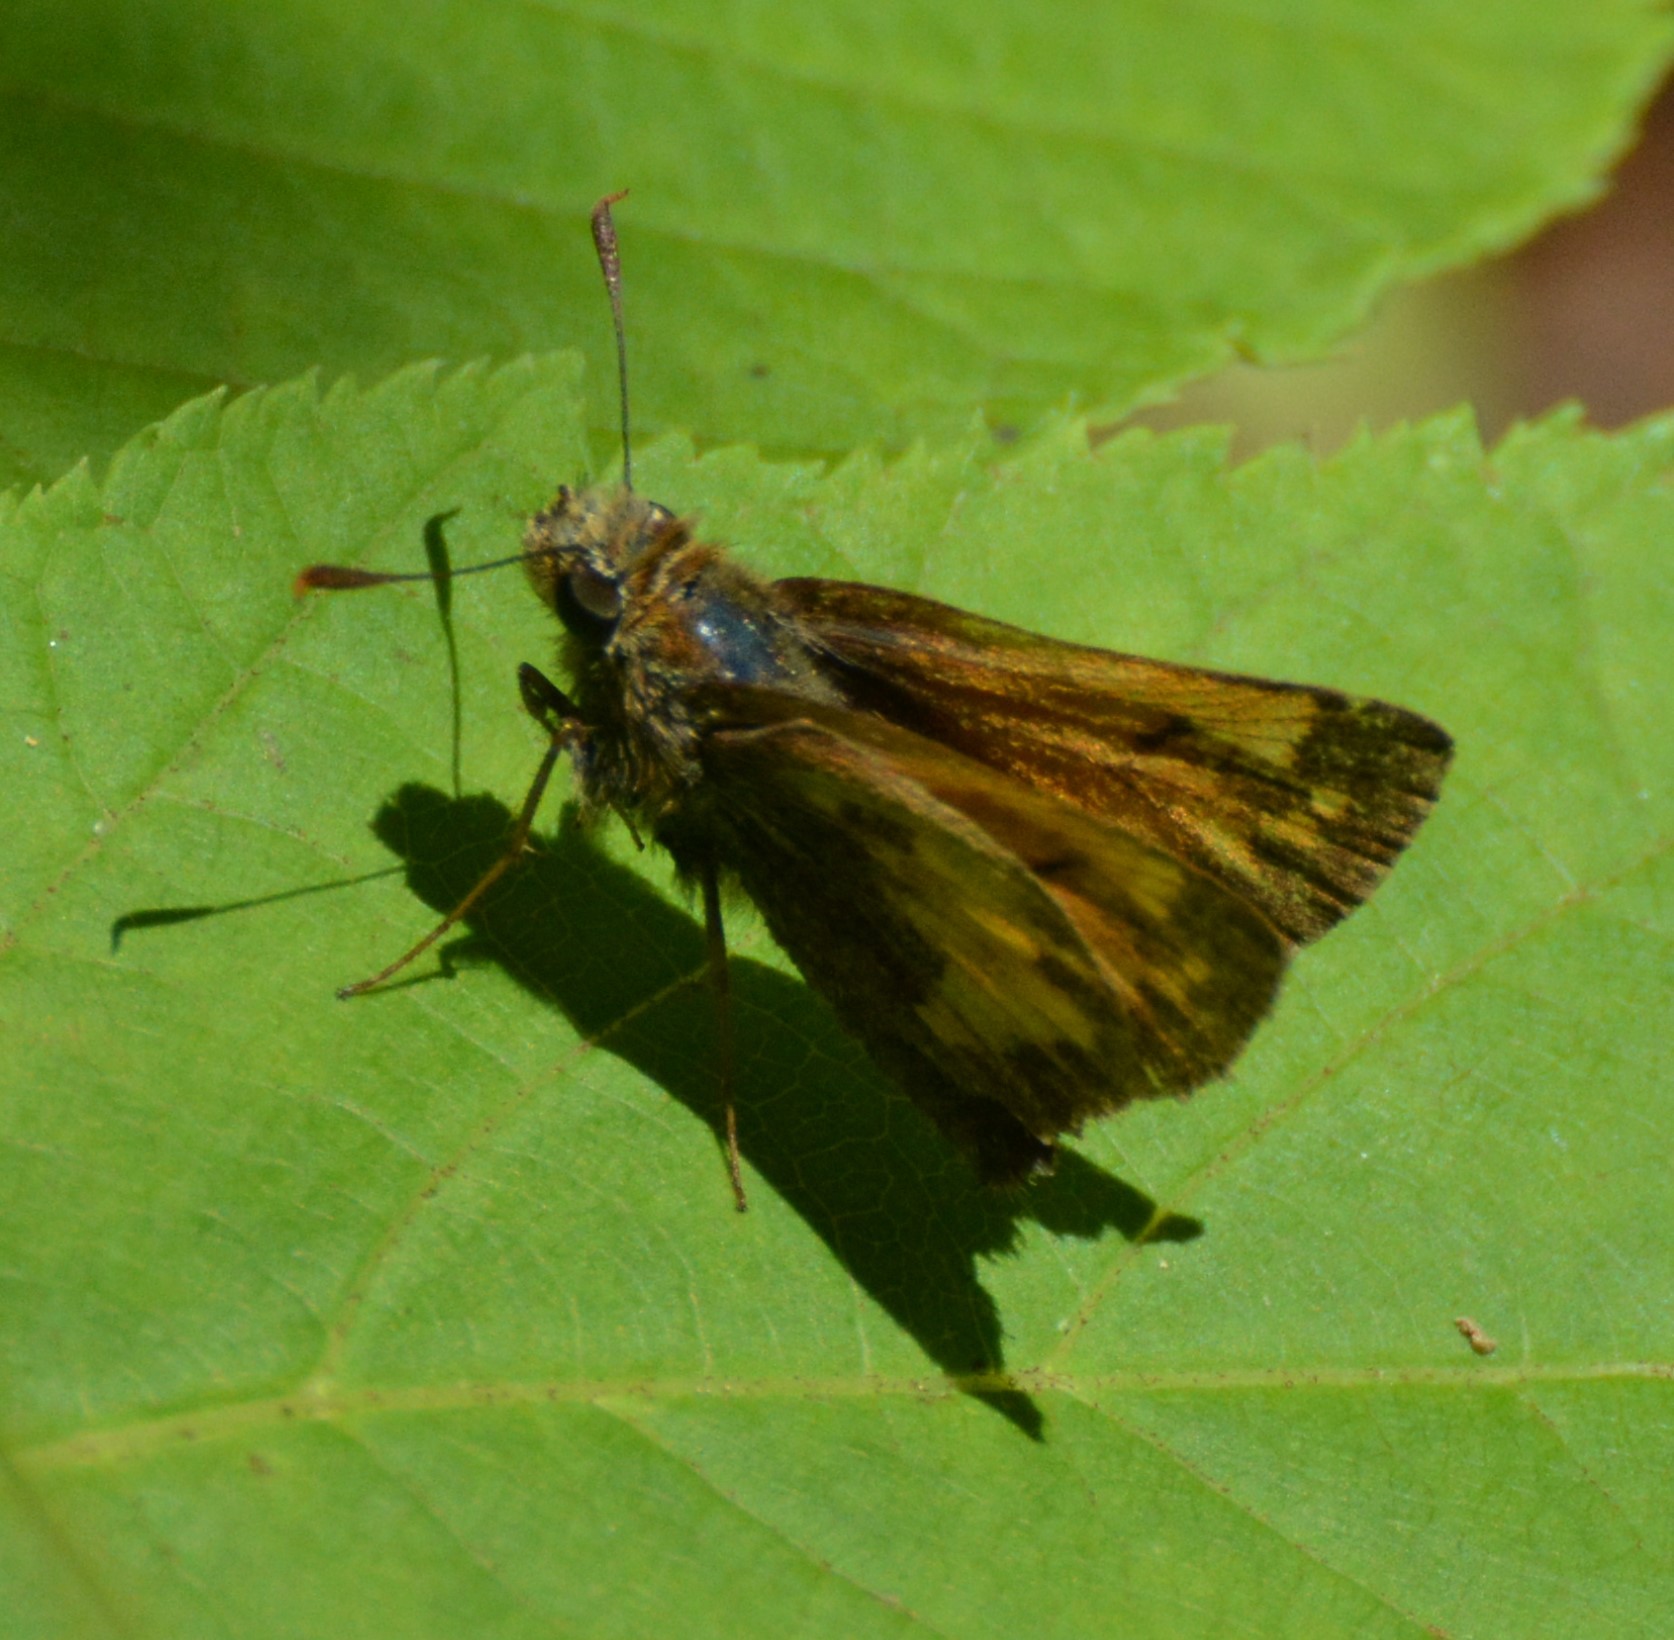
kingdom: Animalia
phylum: Arthropoda
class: Insecta
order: Lepidoptera
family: Hesperiidae
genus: Lon
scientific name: Lon hobomok
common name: Hobomok skipper
